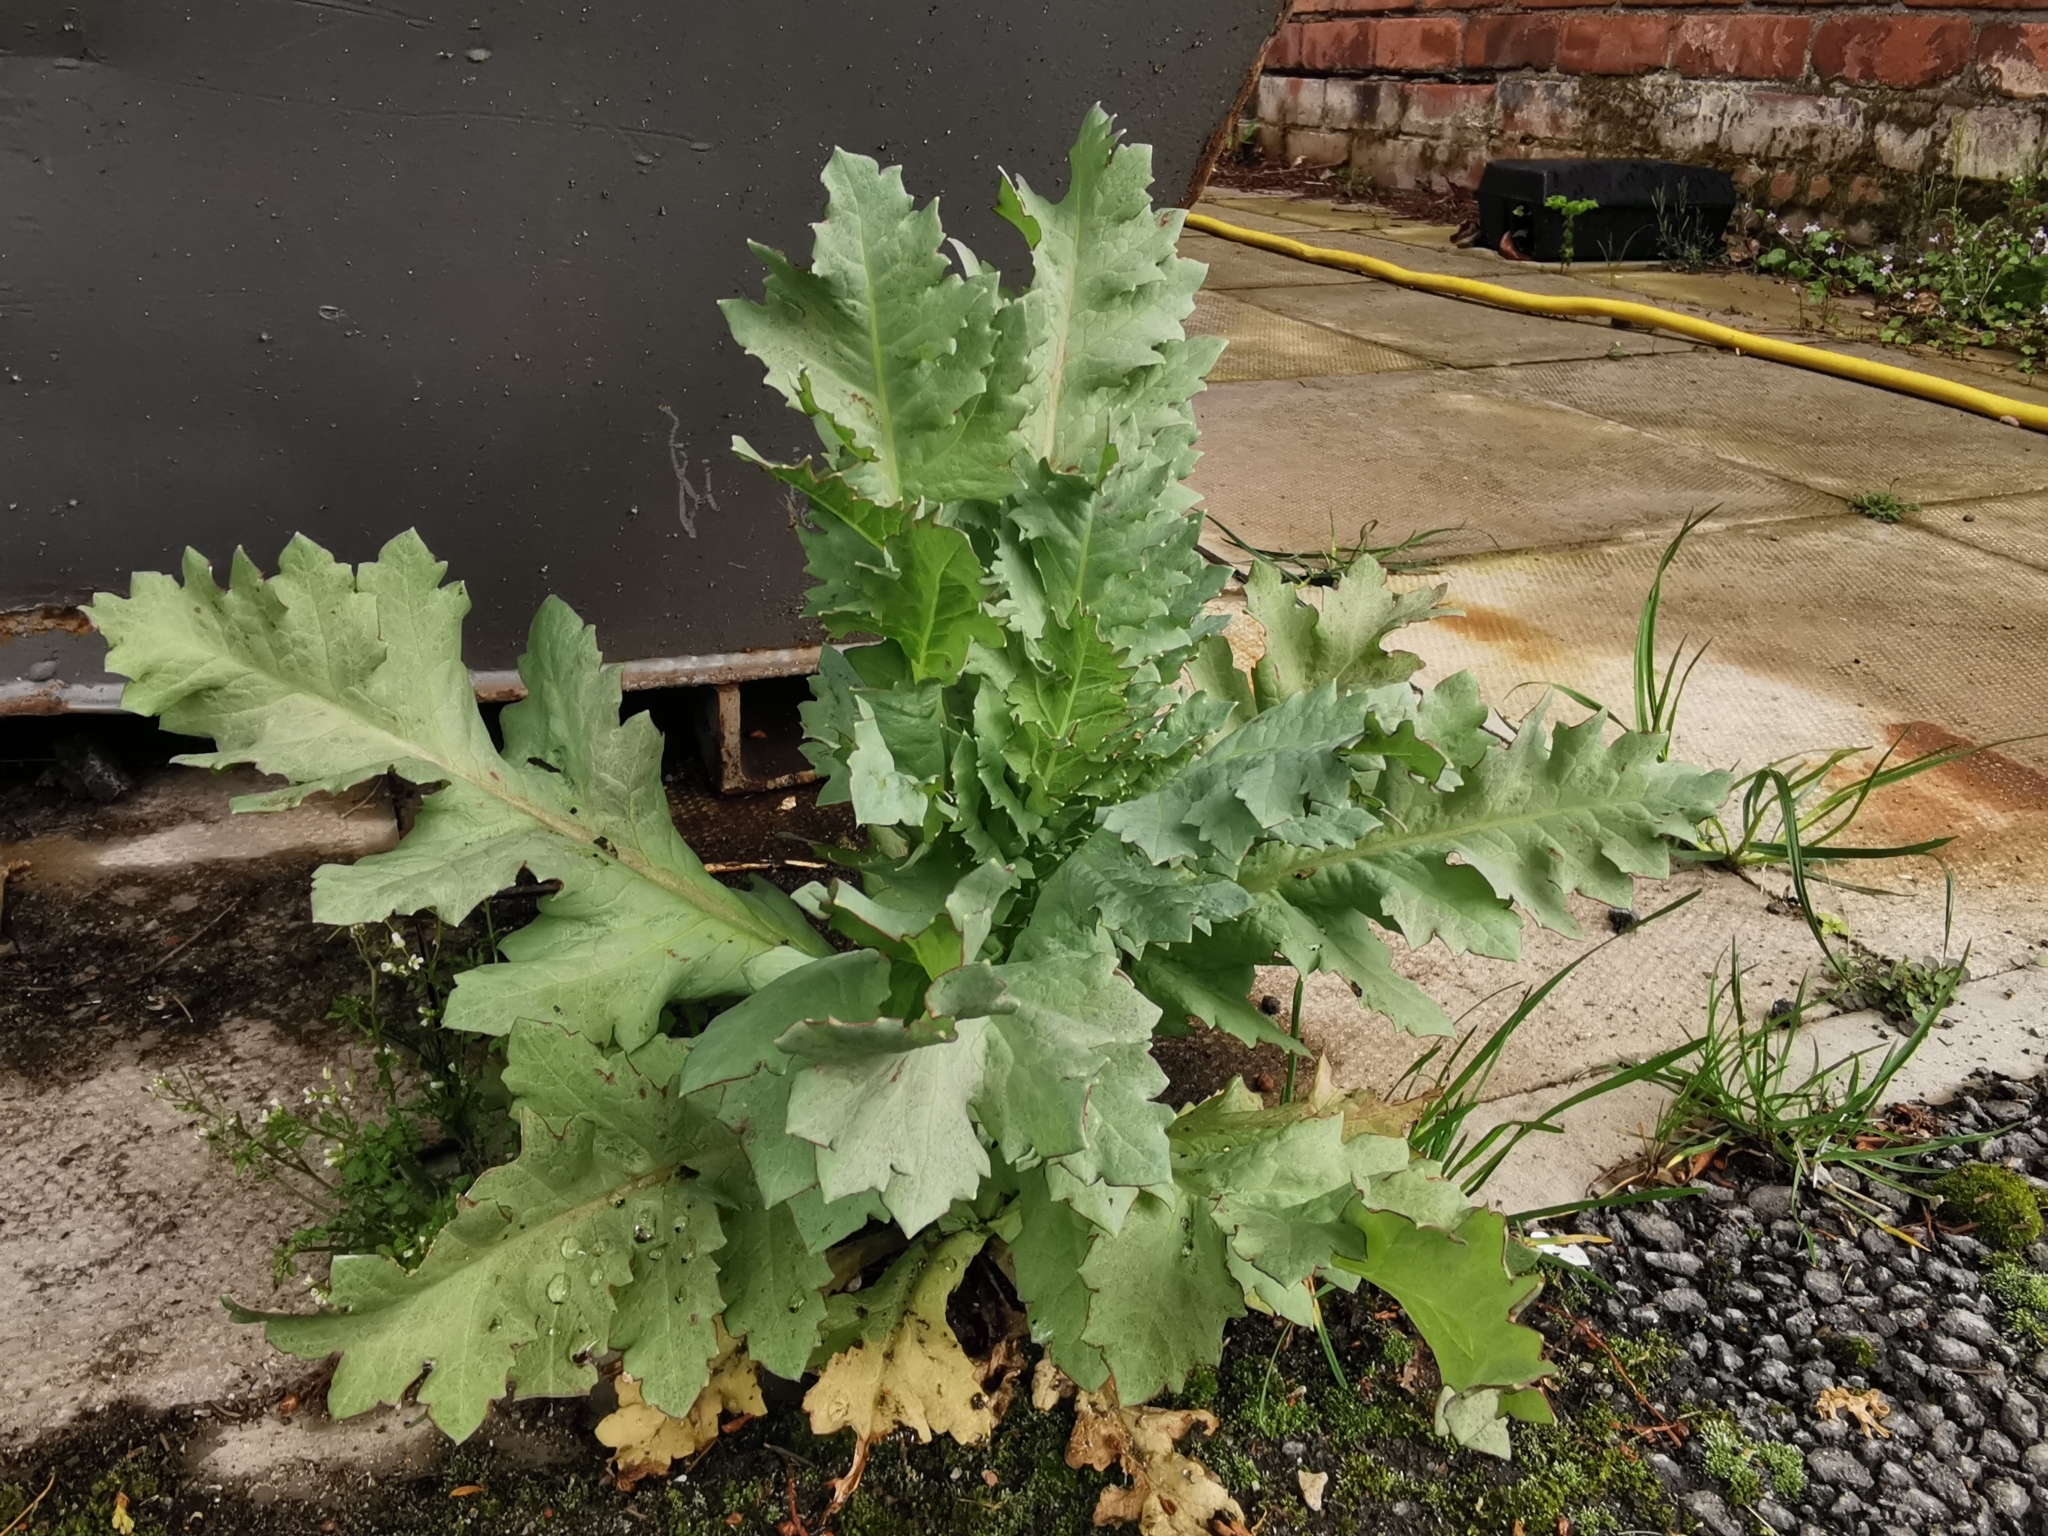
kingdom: Plantae
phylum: Tracheophyta
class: Magnoliopsida
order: Ranunculales
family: Papaveraceae
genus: Papaver
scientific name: Papaver somniferum
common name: Opium poppy
